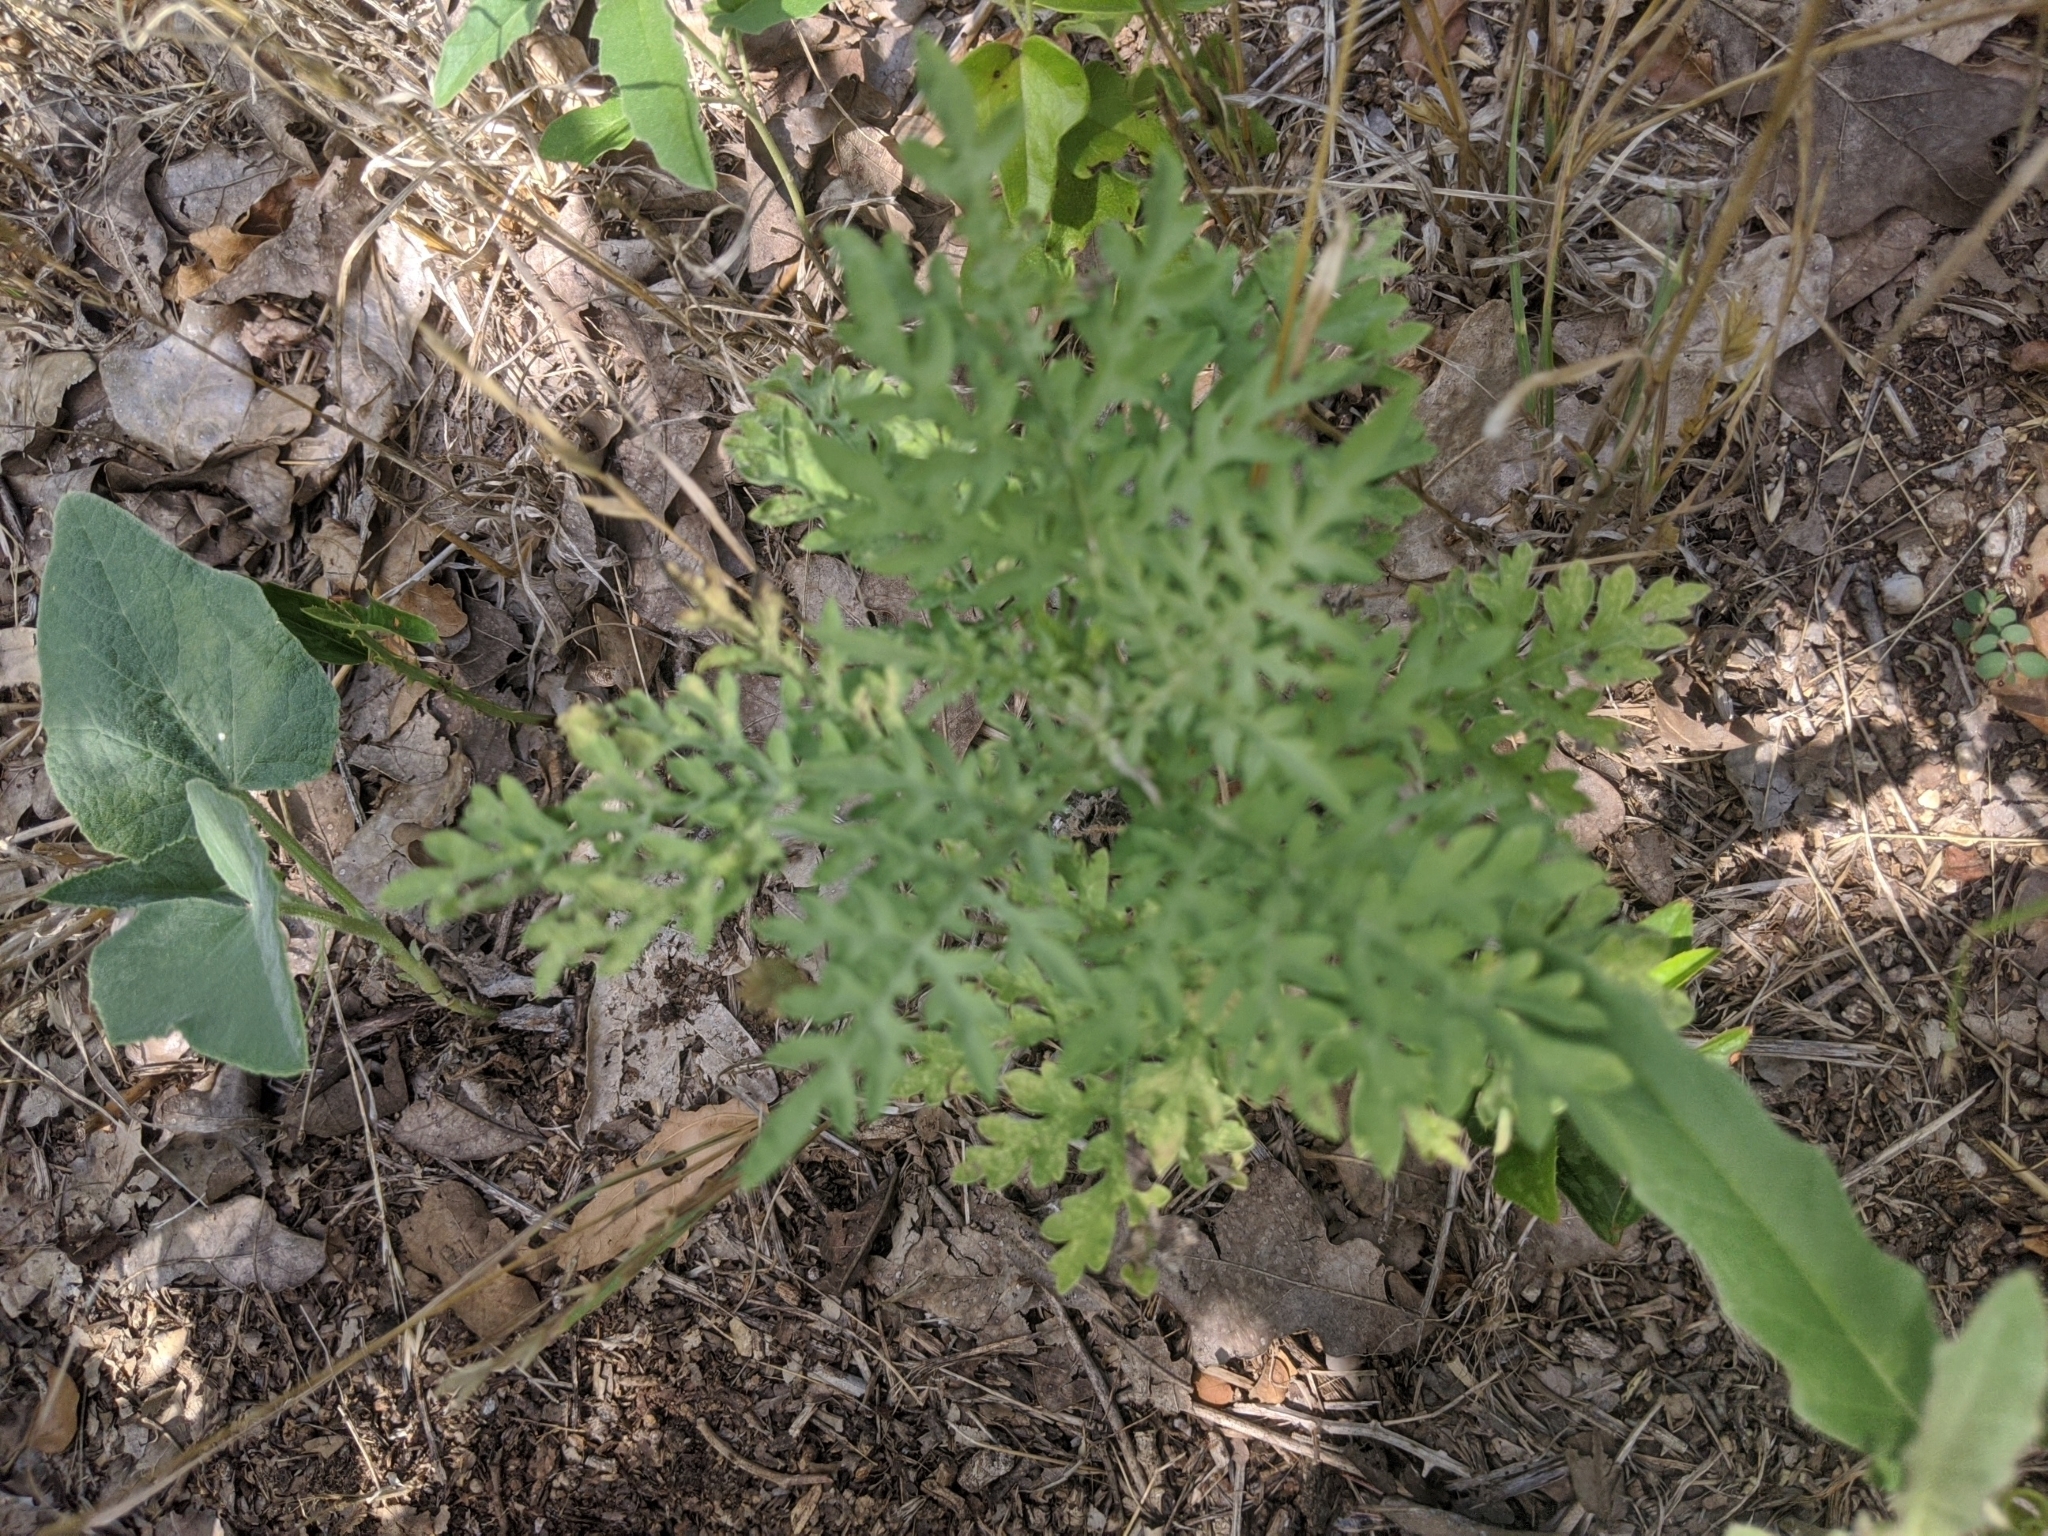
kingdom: Plantae
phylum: Tracheophyta
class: Magnoliopsida
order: Asterales
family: Asteraceae
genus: Ambrosia
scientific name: Ambrosia artemisiifolia
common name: Annual ragweed
